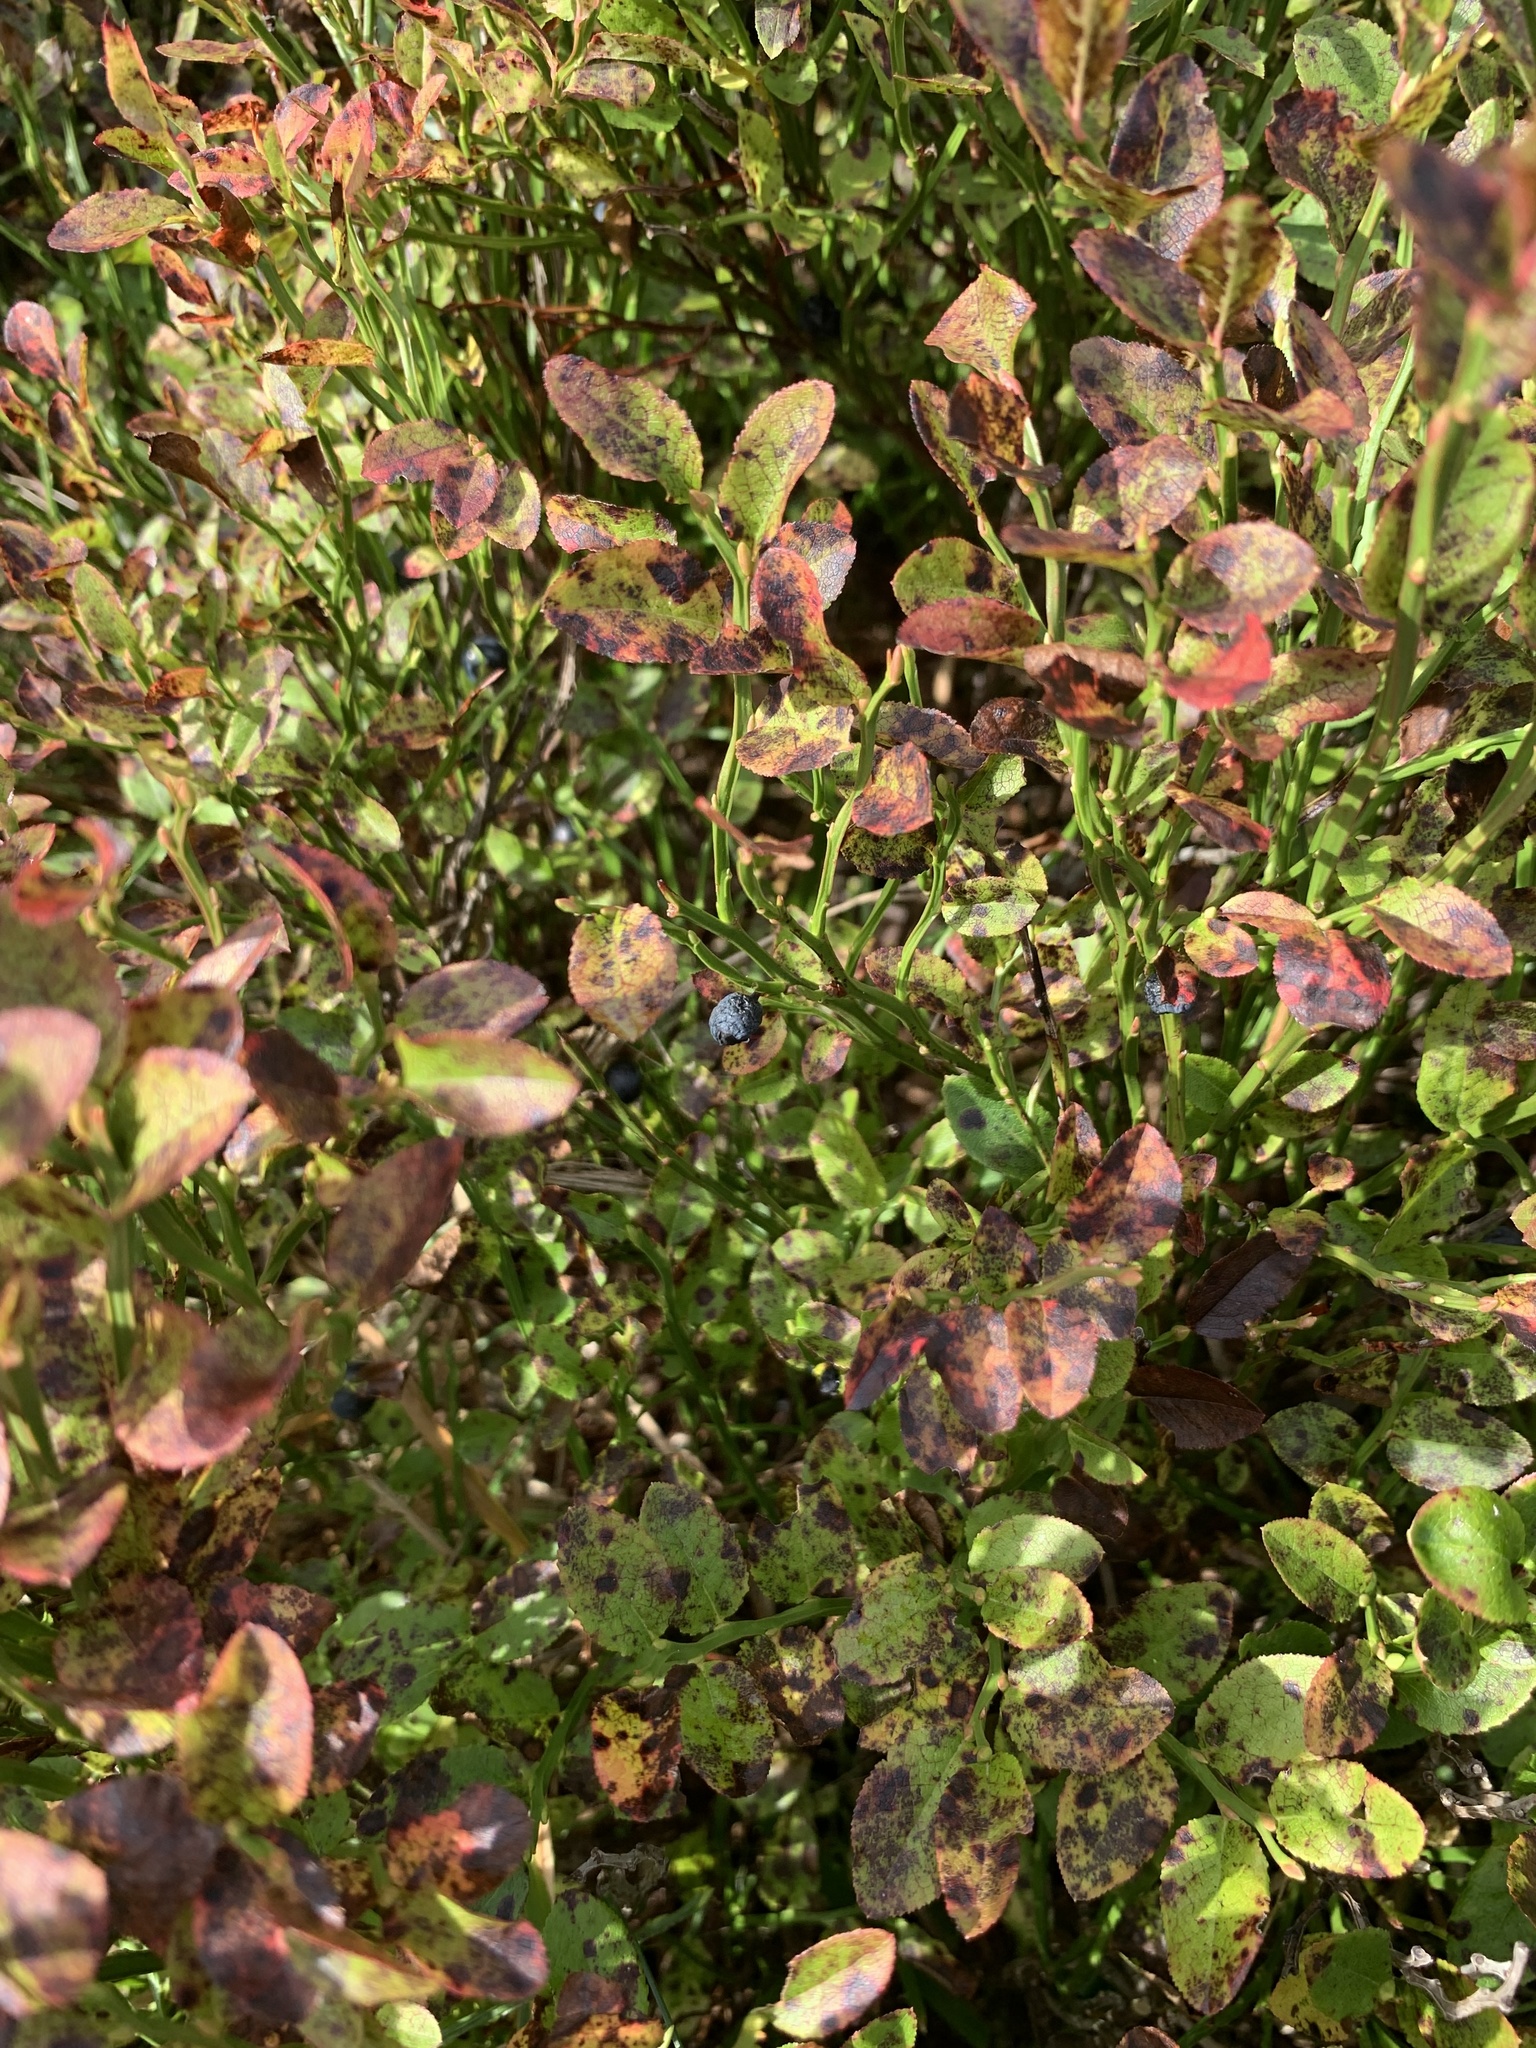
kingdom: Plantae
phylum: Tracheophyta
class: Magnoliopsida
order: Ericales
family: Ericaceae
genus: Vaccinium
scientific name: Vaccinium myrtillus
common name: Bilberry
